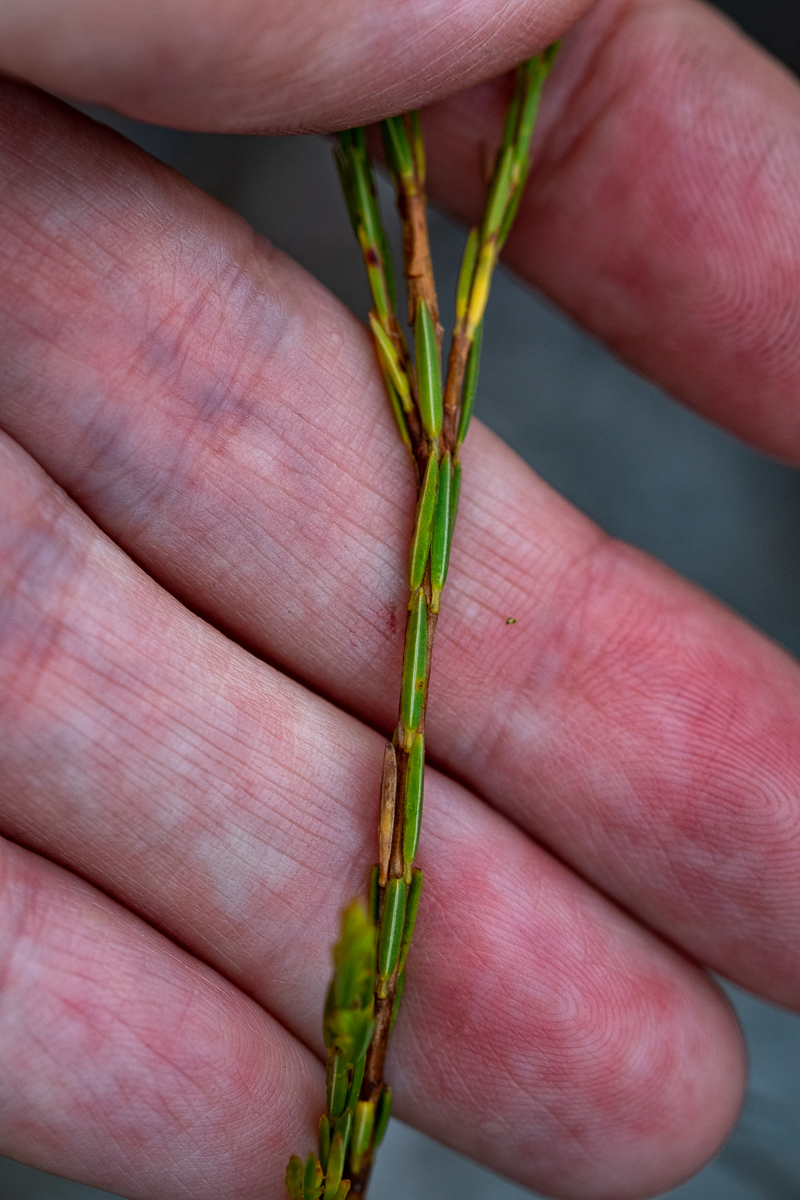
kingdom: Plantae
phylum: Tracheophyta
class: Magnoliopsida
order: Ericales
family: Ericaceae
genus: Erica
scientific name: Erica corifolia
